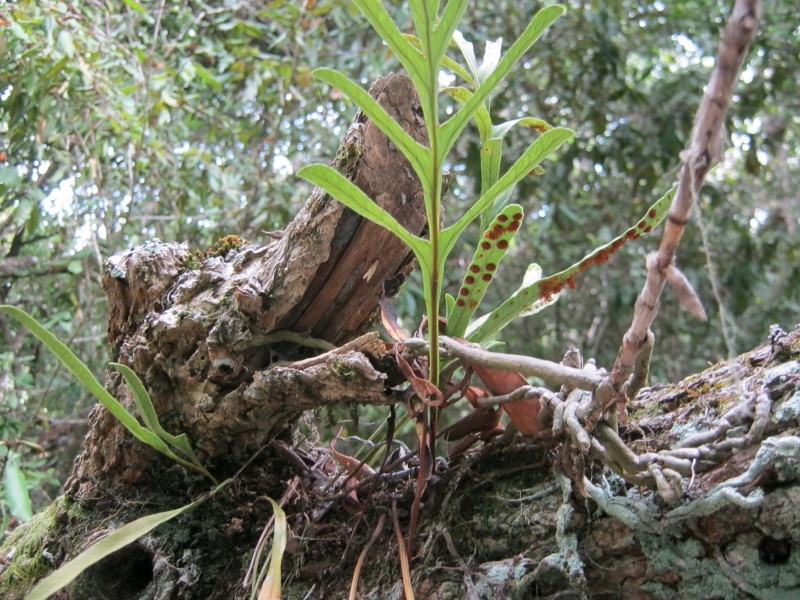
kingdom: Plantae
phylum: Tracheophyta
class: Polypodiopsida
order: Polypodiales
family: Polypodiaceae
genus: Polypodium
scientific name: Polypodium ensiforme
